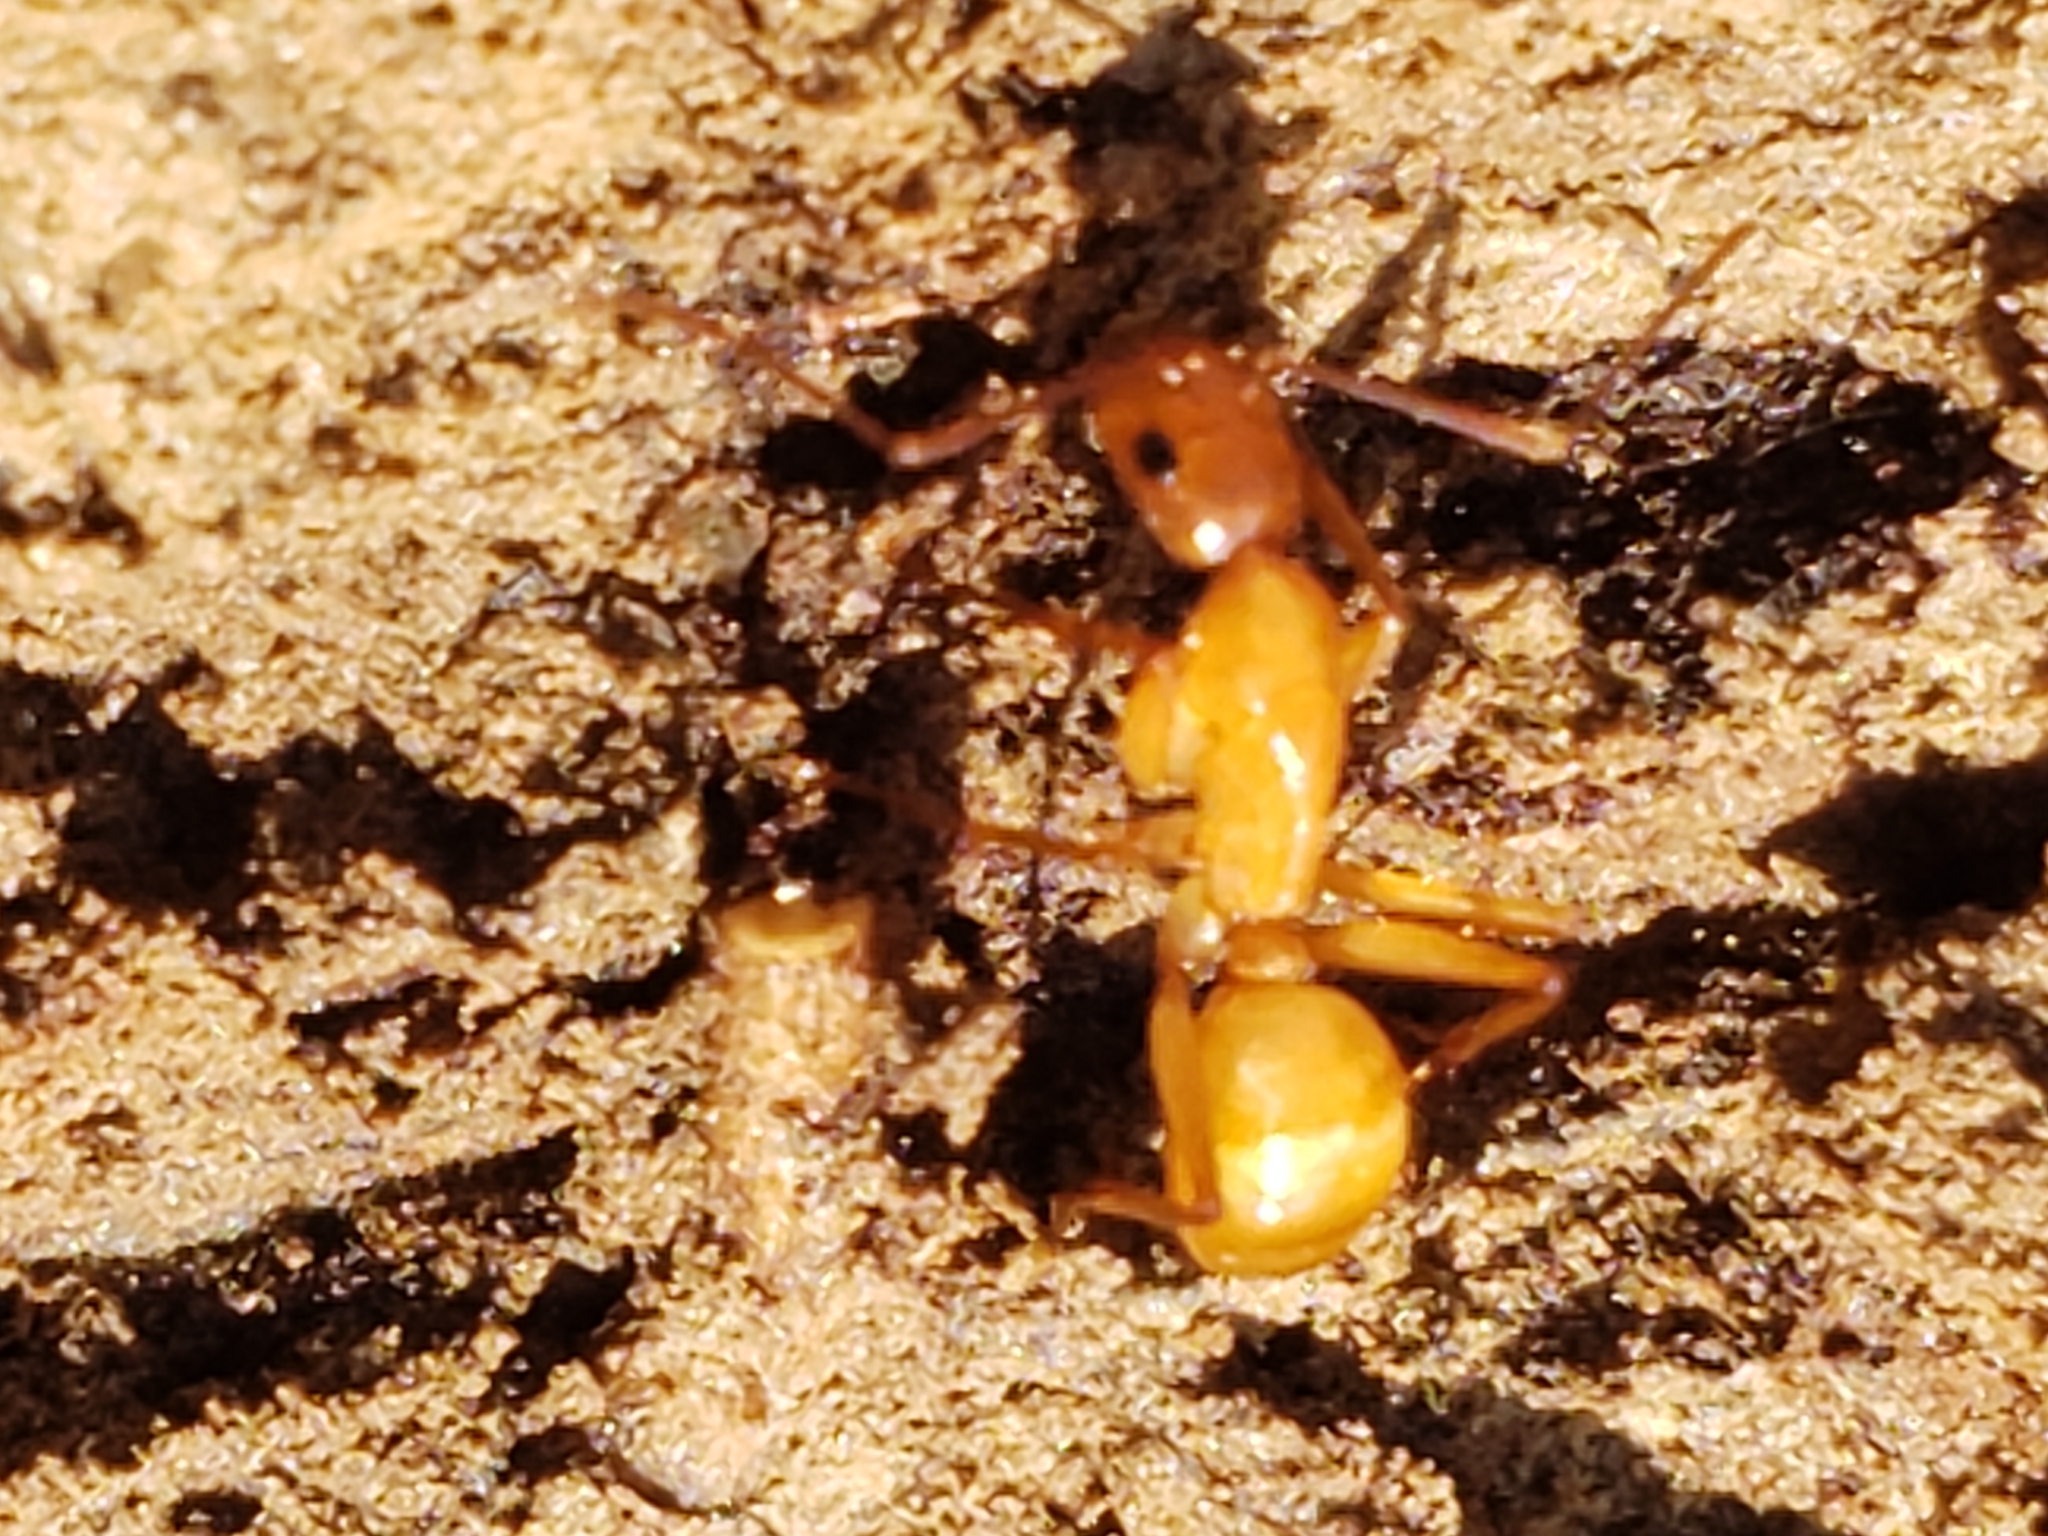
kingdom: Animalia
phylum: Arthropoda
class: Insecta
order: Hymenoptera
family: Formicidae
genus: Camponotus
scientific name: Camponotus castaneus
